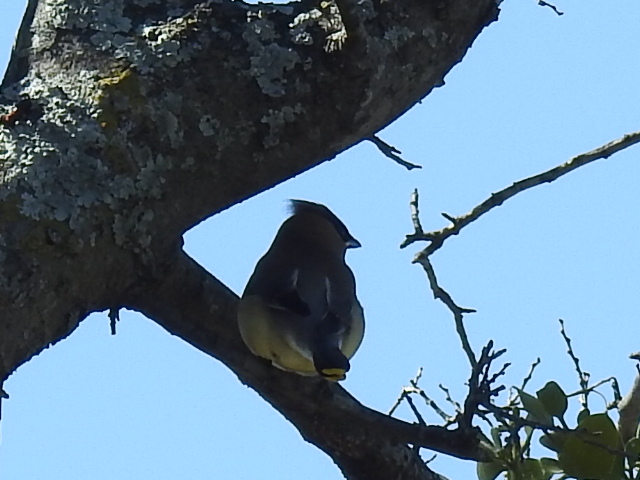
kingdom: Animalia
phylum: Chordata
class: Aves
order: Passeriformes
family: Bombycillidae
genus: Bombycilla
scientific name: Bombycilla cedrorum
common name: Cedar waxwing
